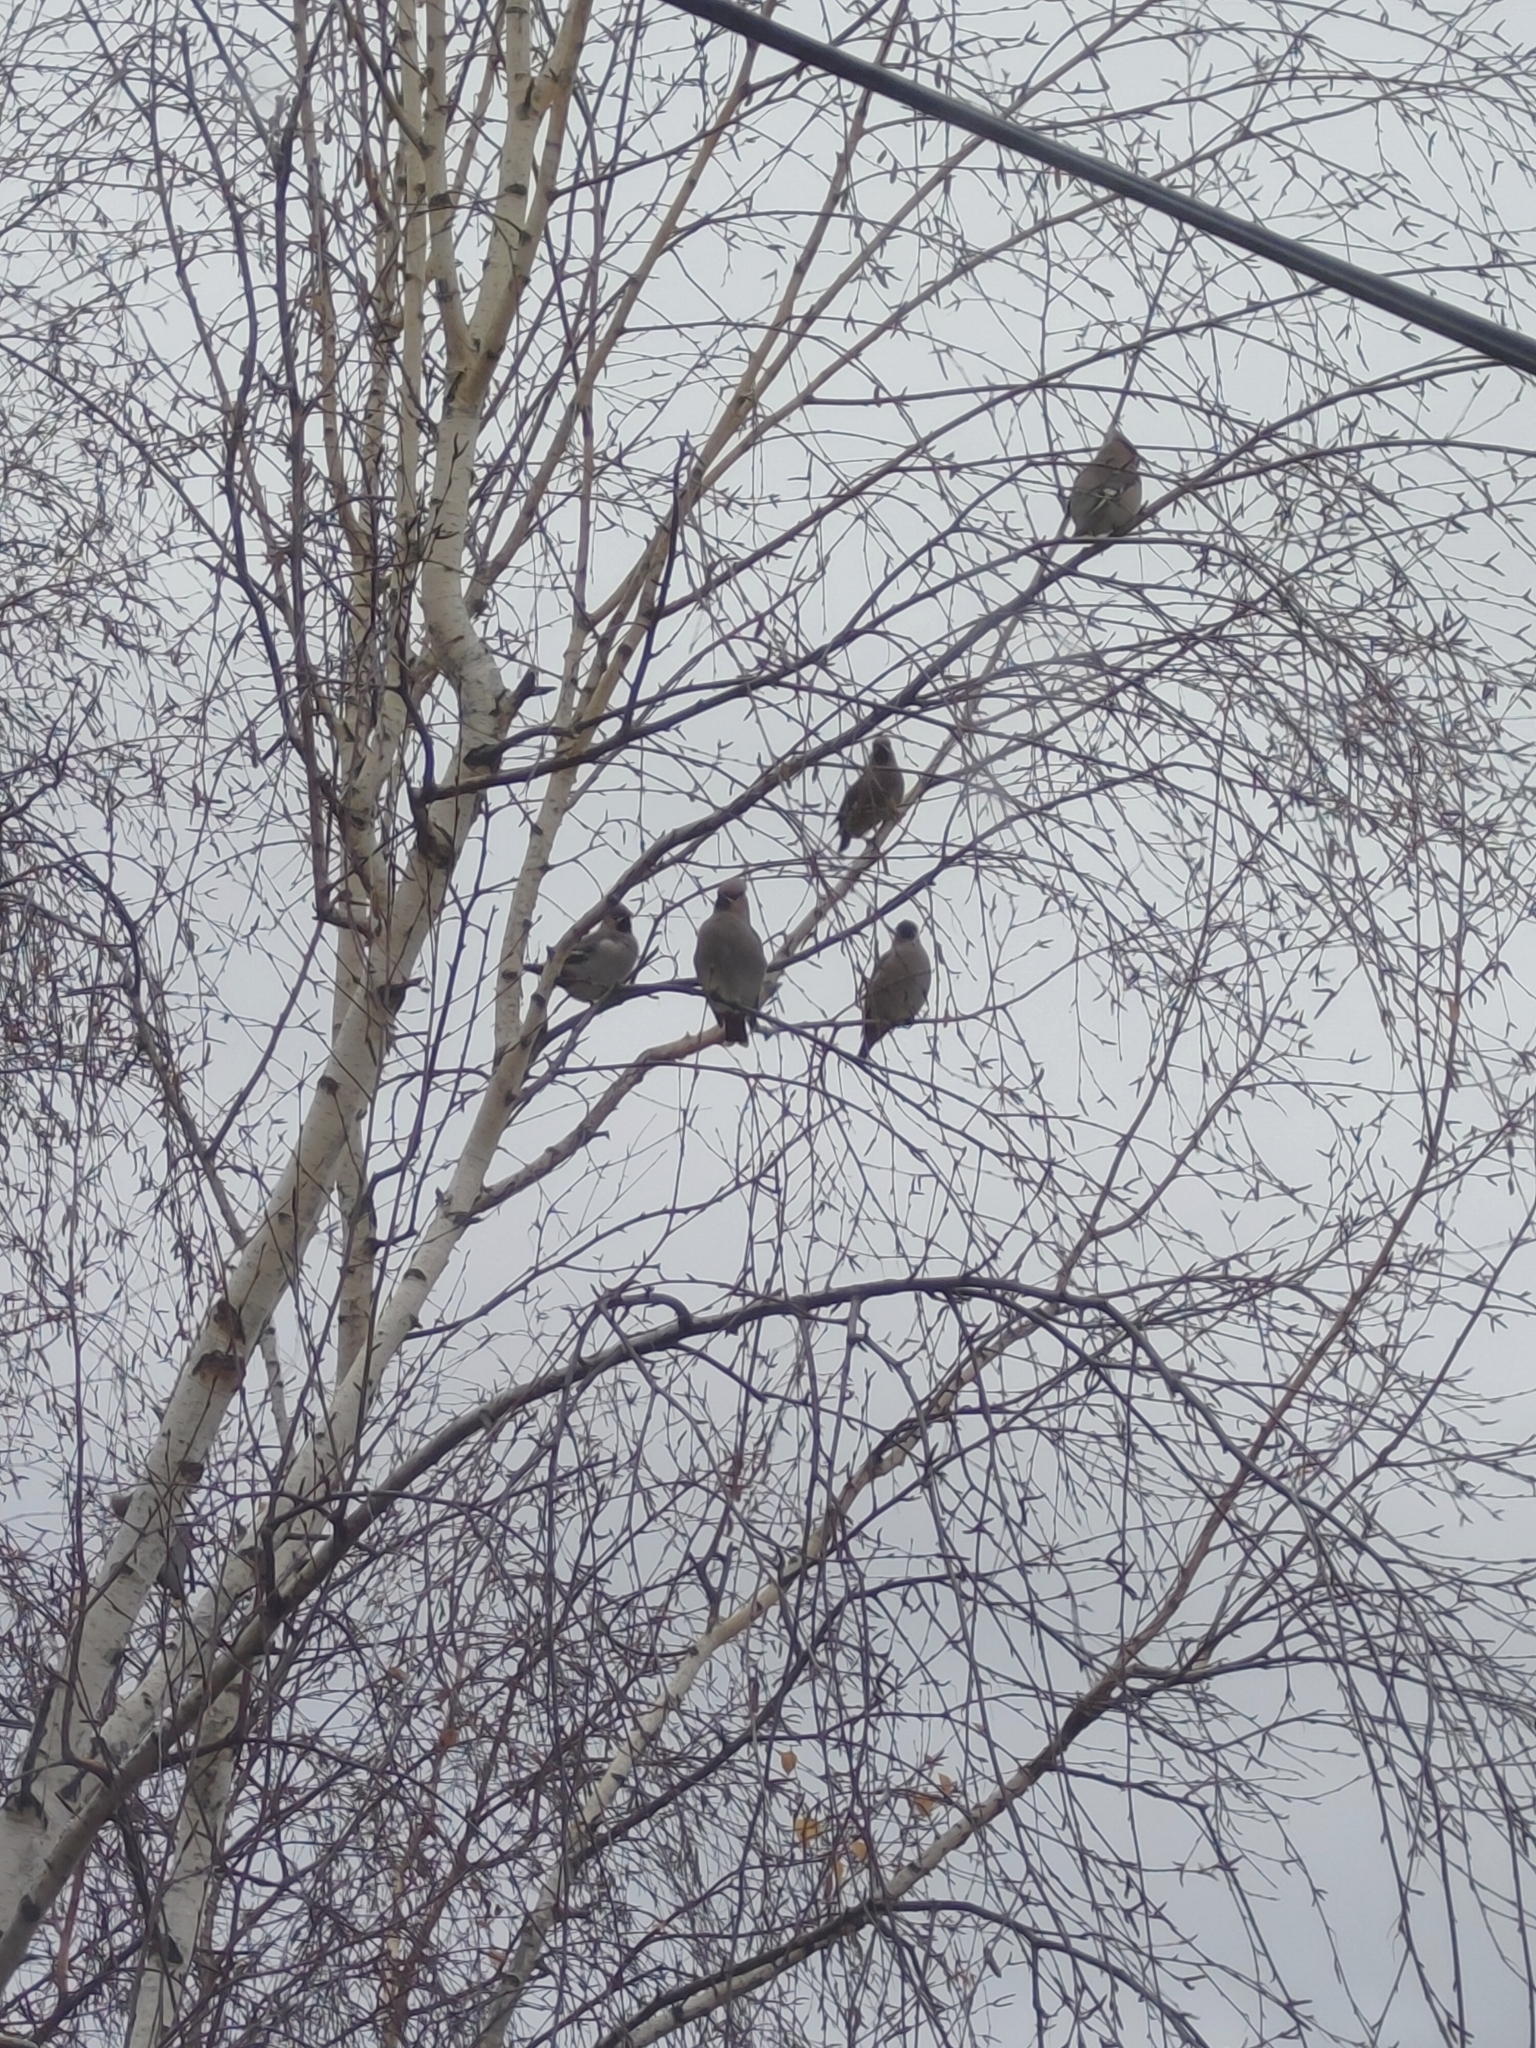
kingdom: Animalia
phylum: Chordata
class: Aves
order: Passeriformes
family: Bombycillidae
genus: Bombycilla
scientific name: Bombycilla garrulus
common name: Bohemian waxwing
